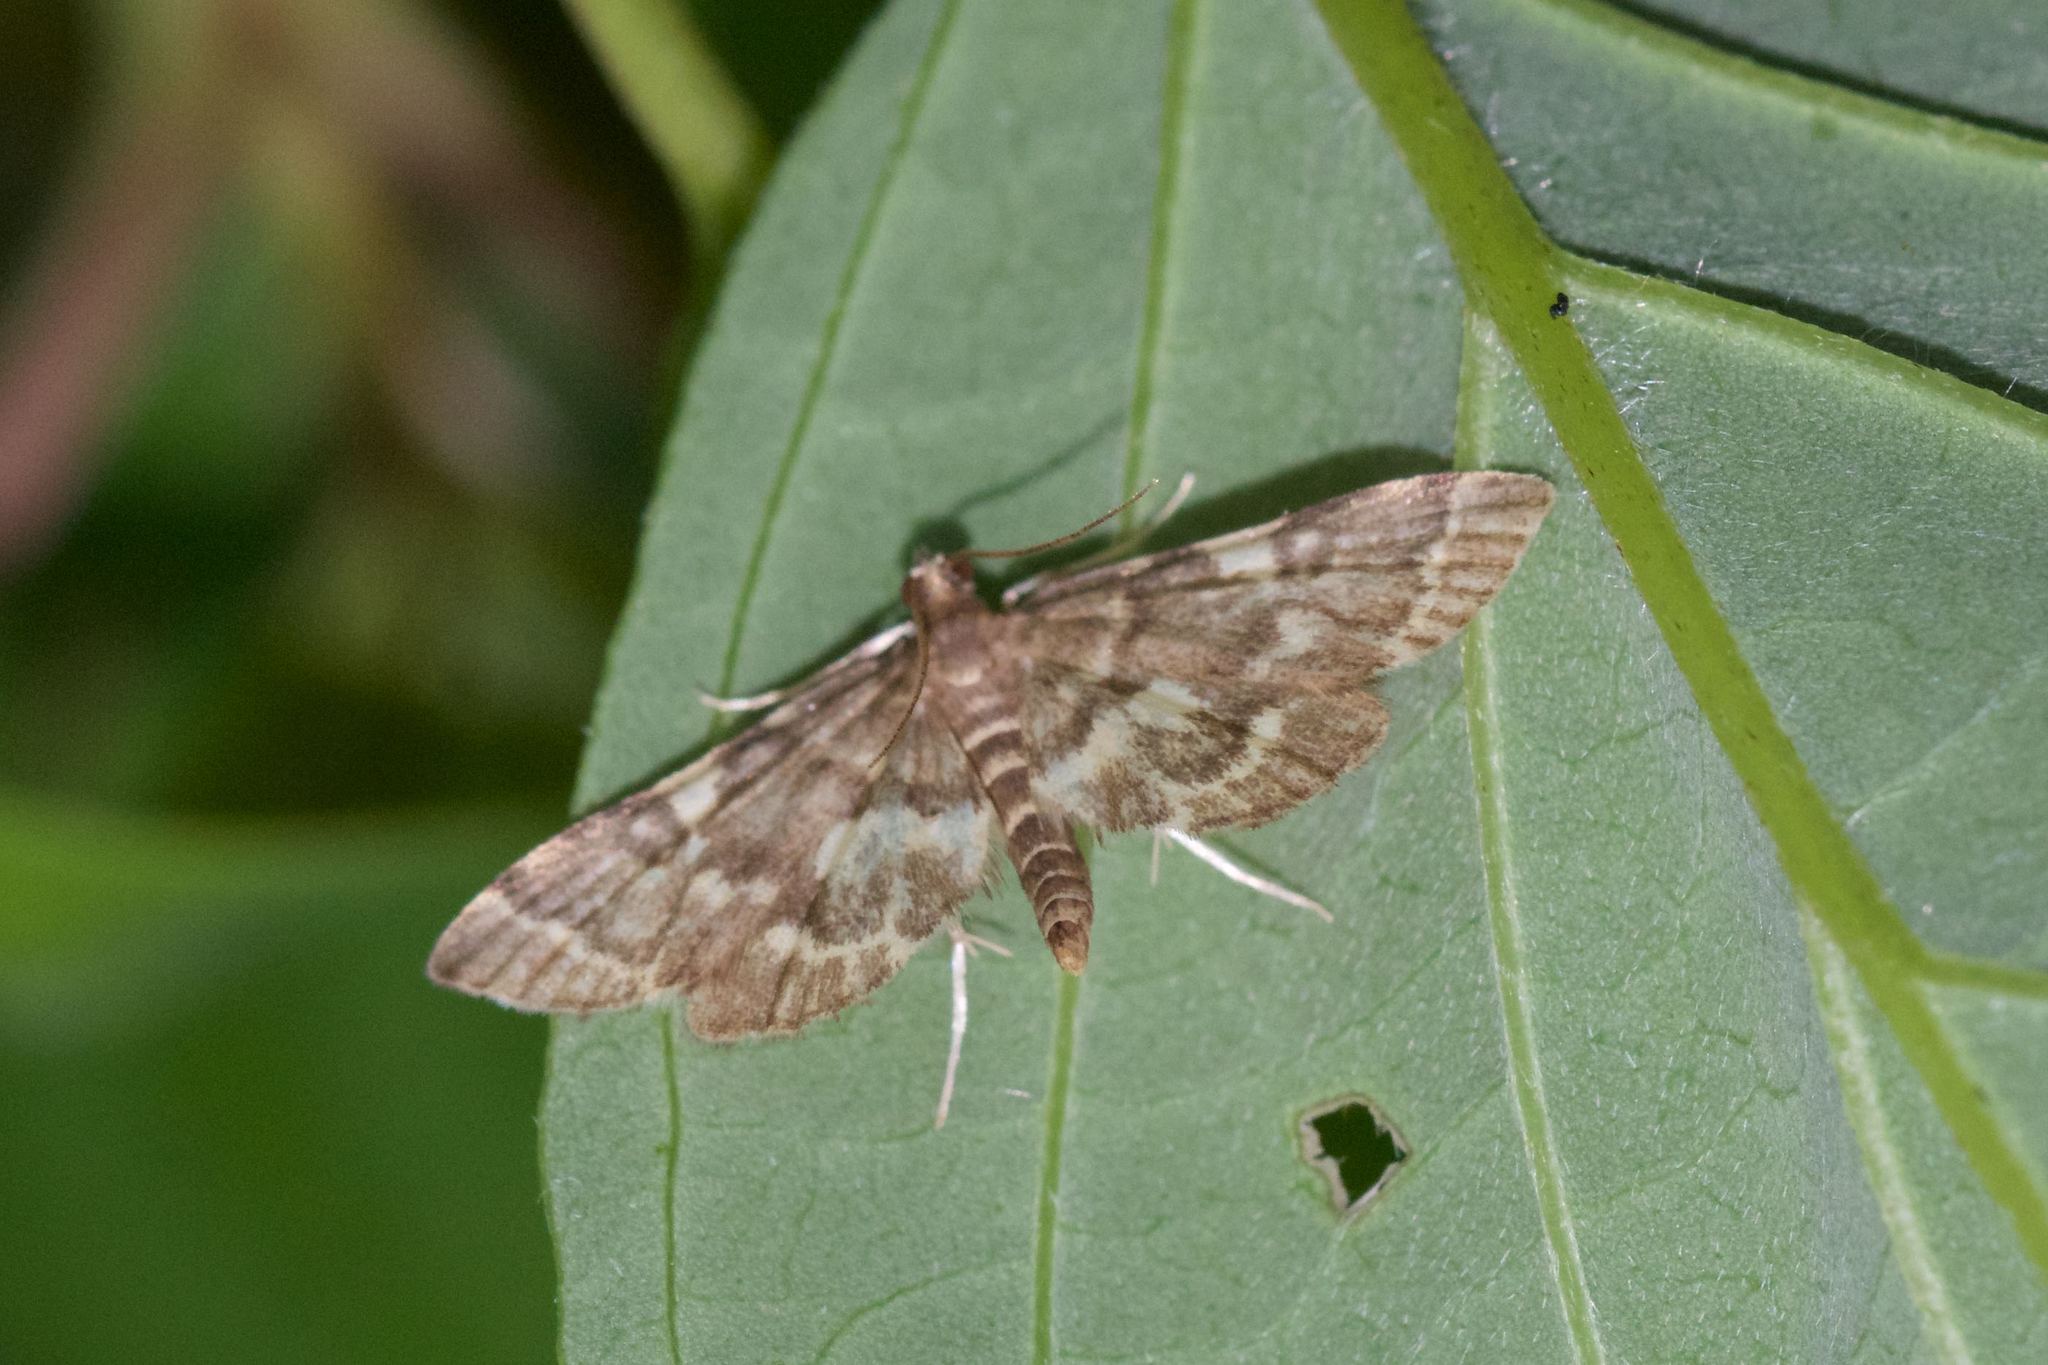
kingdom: Animalia
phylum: Arthropoda
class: Insecta
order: Lepidoptera
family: Crambidae
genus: Anageshna
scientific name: Anageshna primordialis
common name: Yellow-spotted webworm moth
